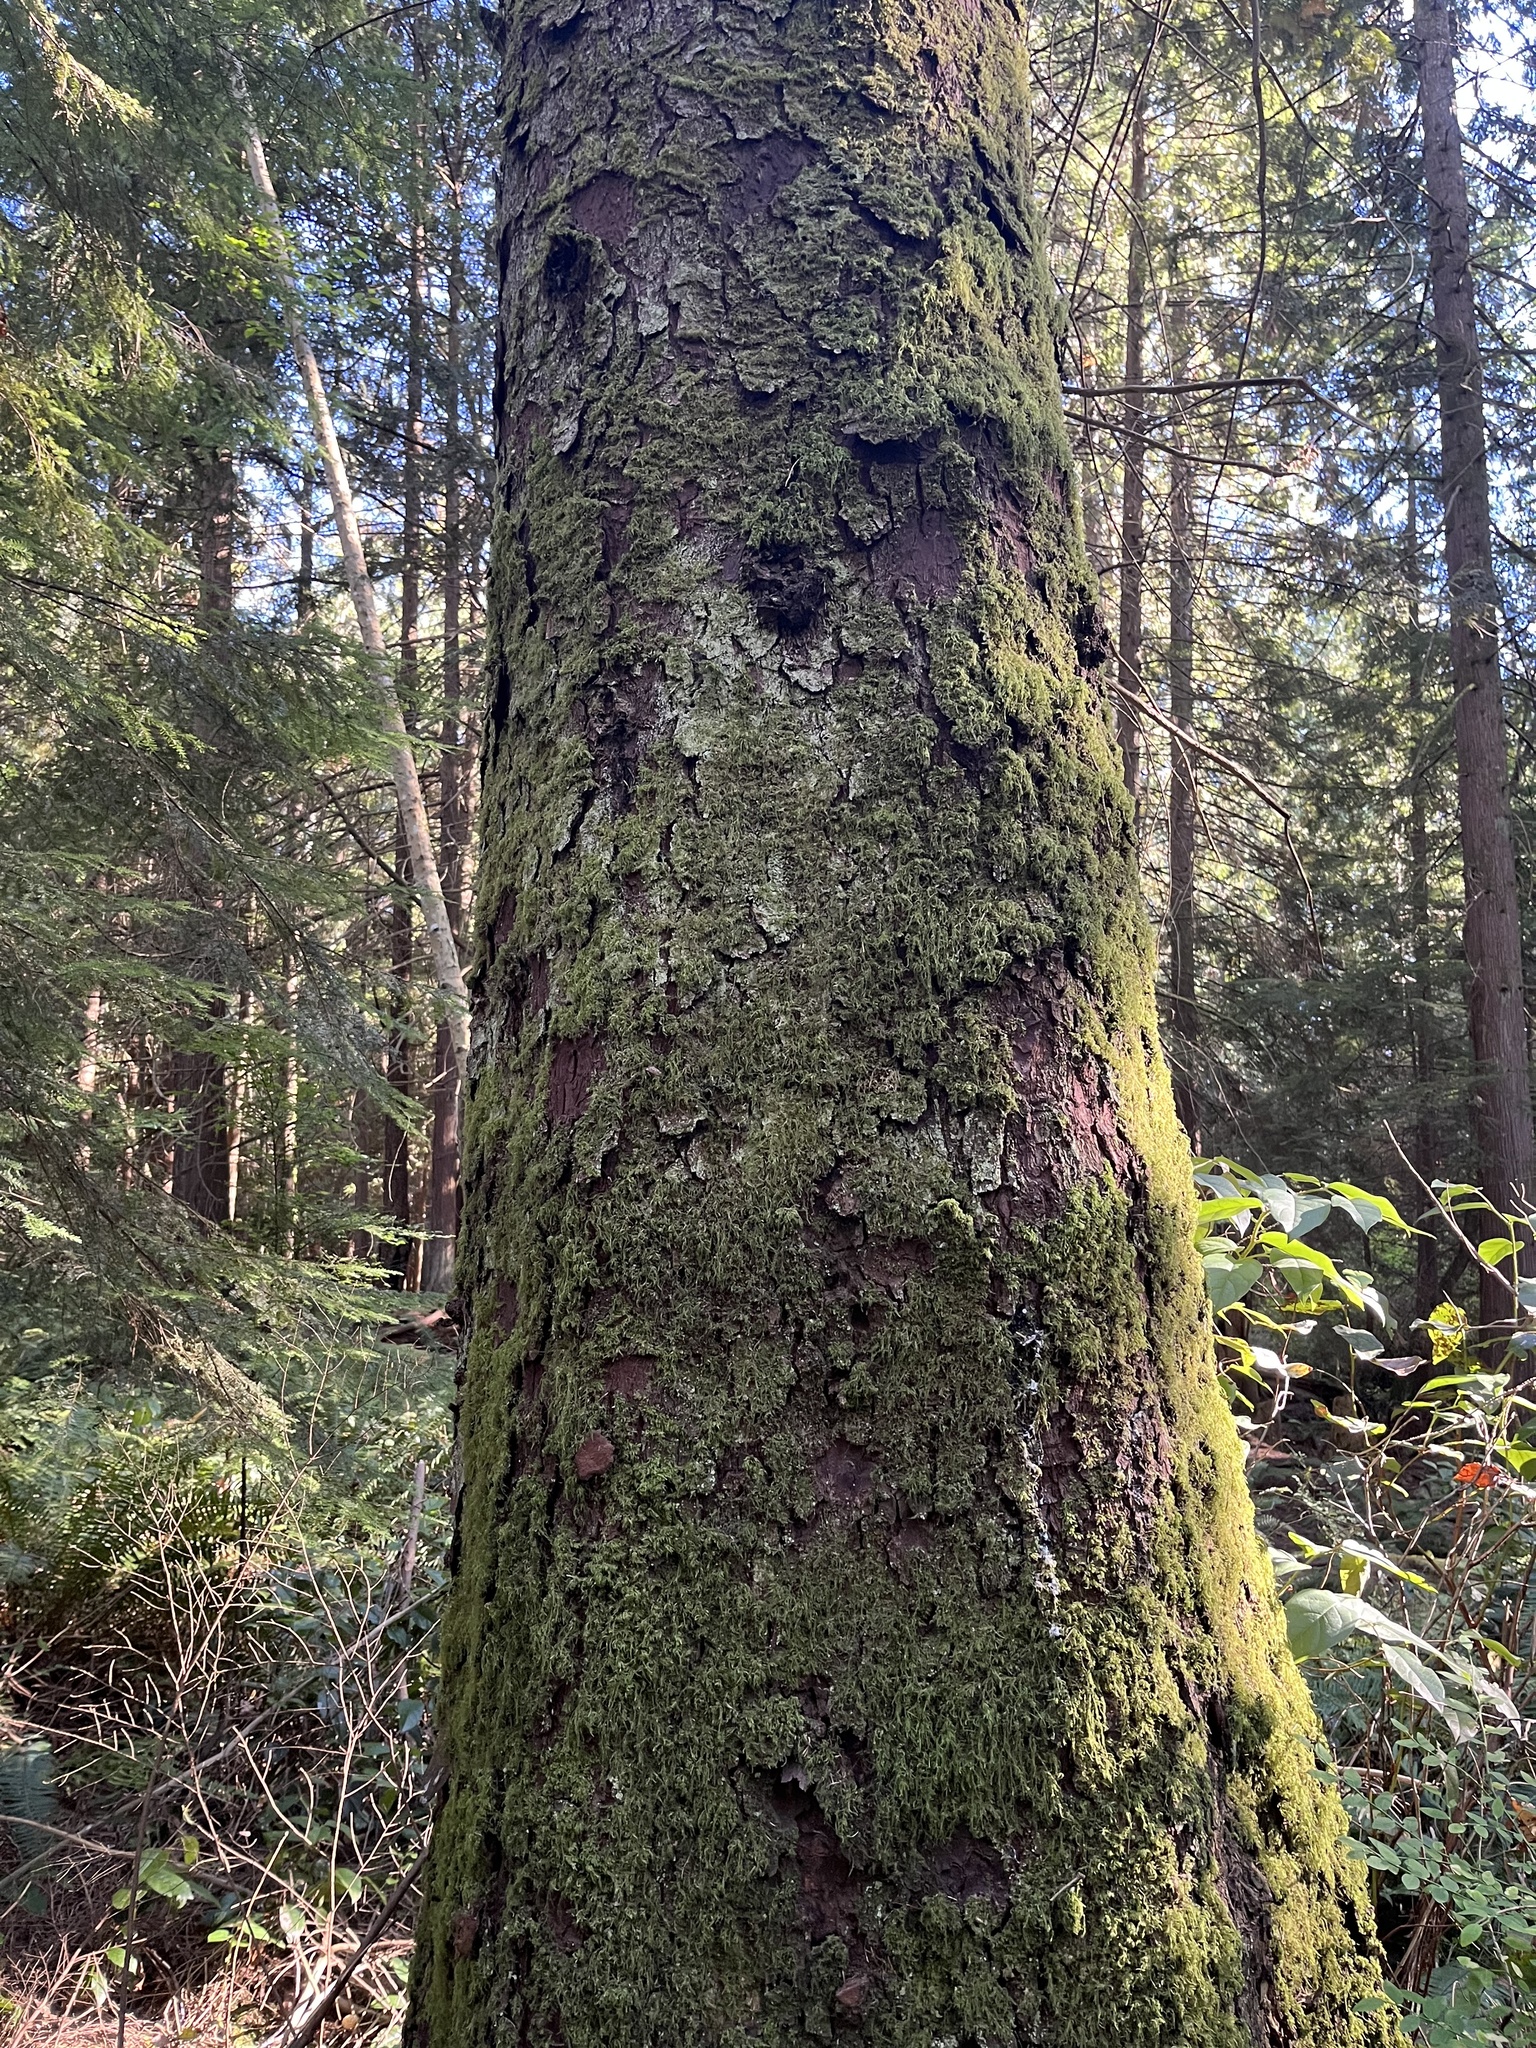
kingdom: Plantae
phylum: Tracheophyta
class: Pinopsida
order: Pinales
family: Pinaceae
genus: Picea
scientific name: Picea sitchensis
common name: Sitka spruce
